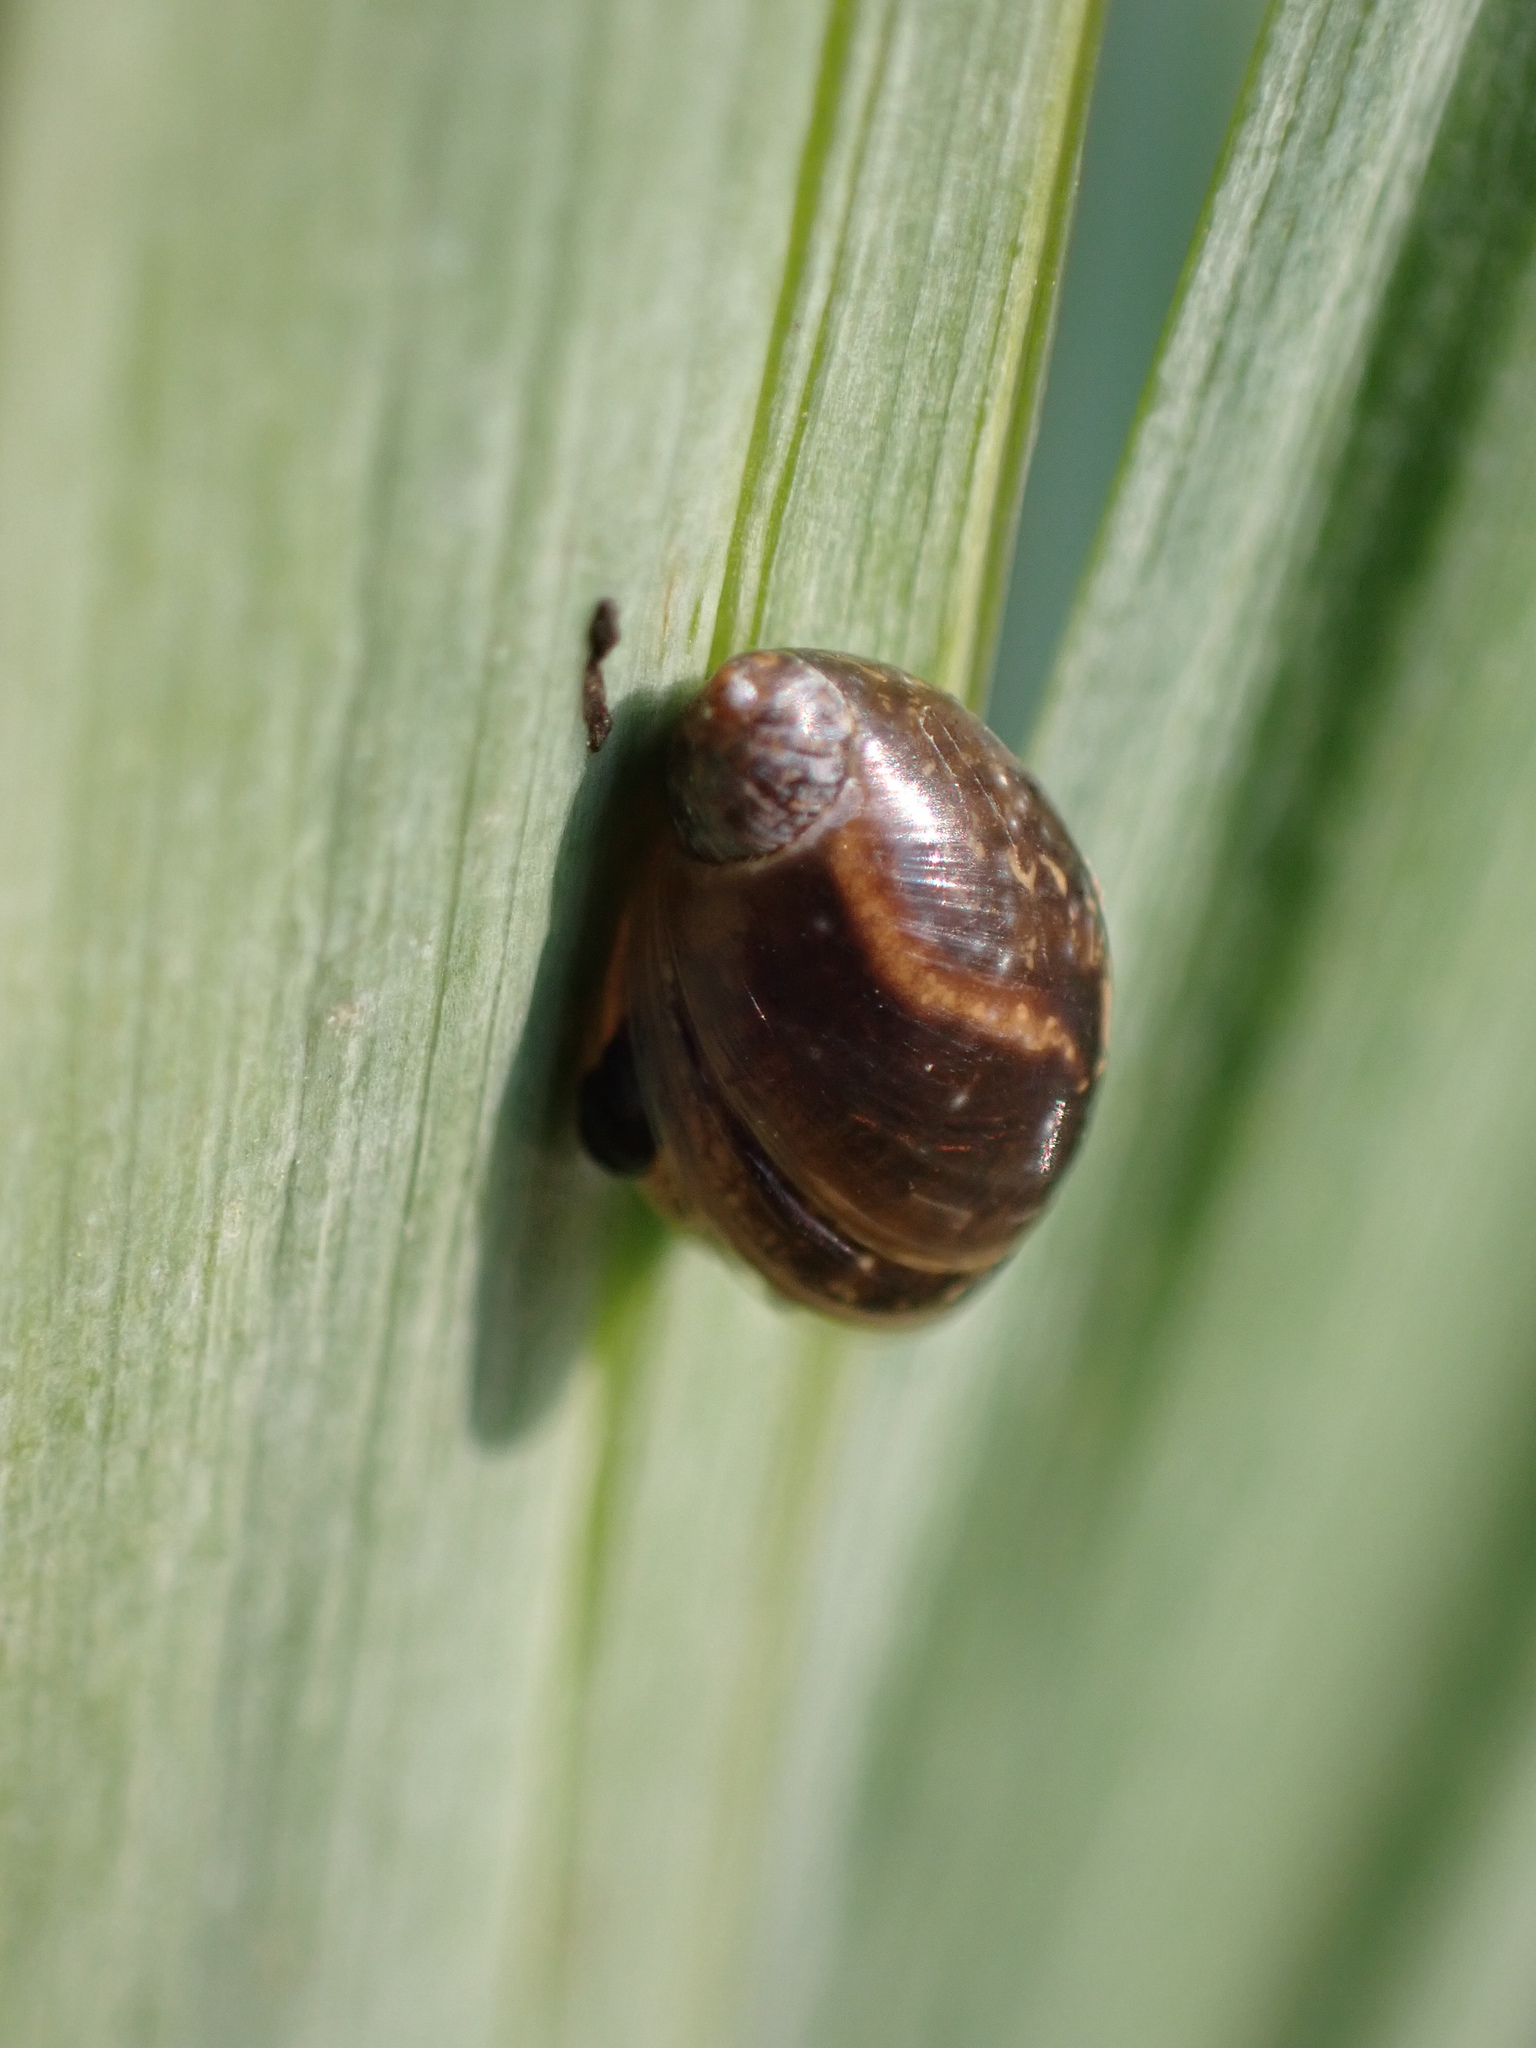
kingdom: Animalia
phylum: Mollusca
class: Gastropoda
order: Stylommatophora
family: Succineidae
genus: Succinea
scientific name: Succinea putris
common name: European ambersnail
